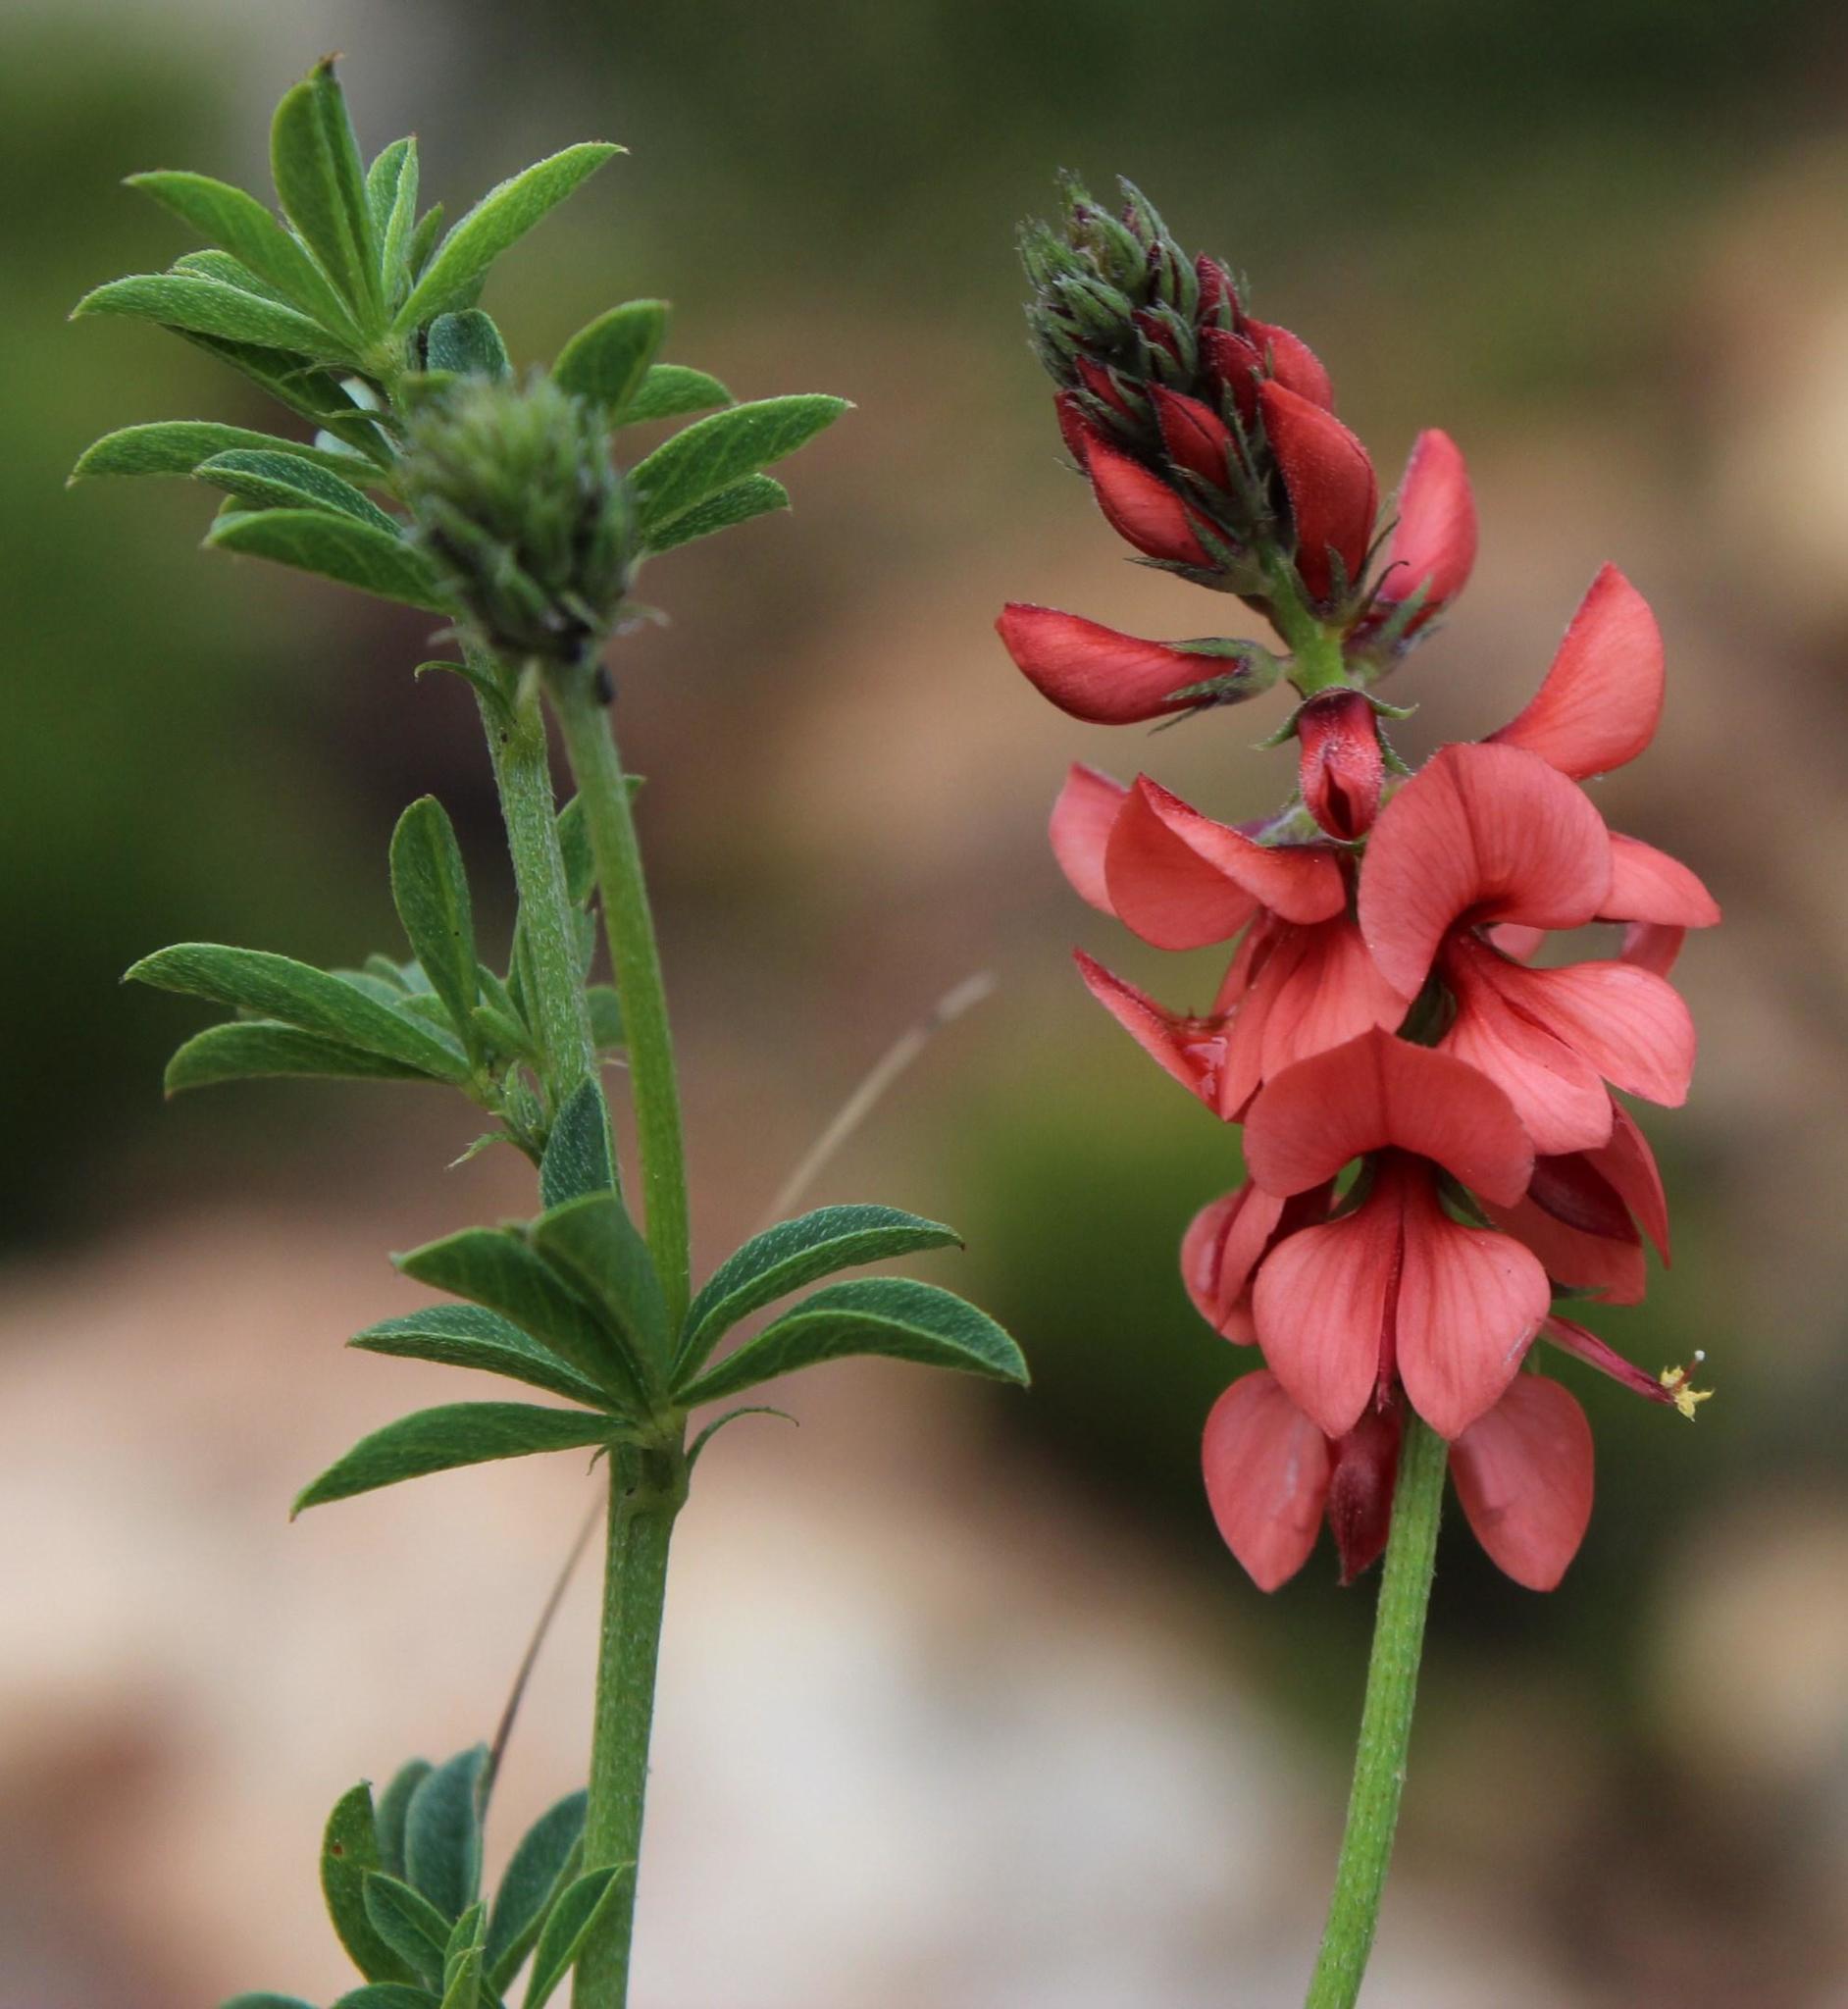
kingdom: Plantae
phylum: Tracheophyta
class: Magnoliopsida
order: Fabales
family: Fabaceae
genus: Indigofera
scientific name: Indigofera digitata
